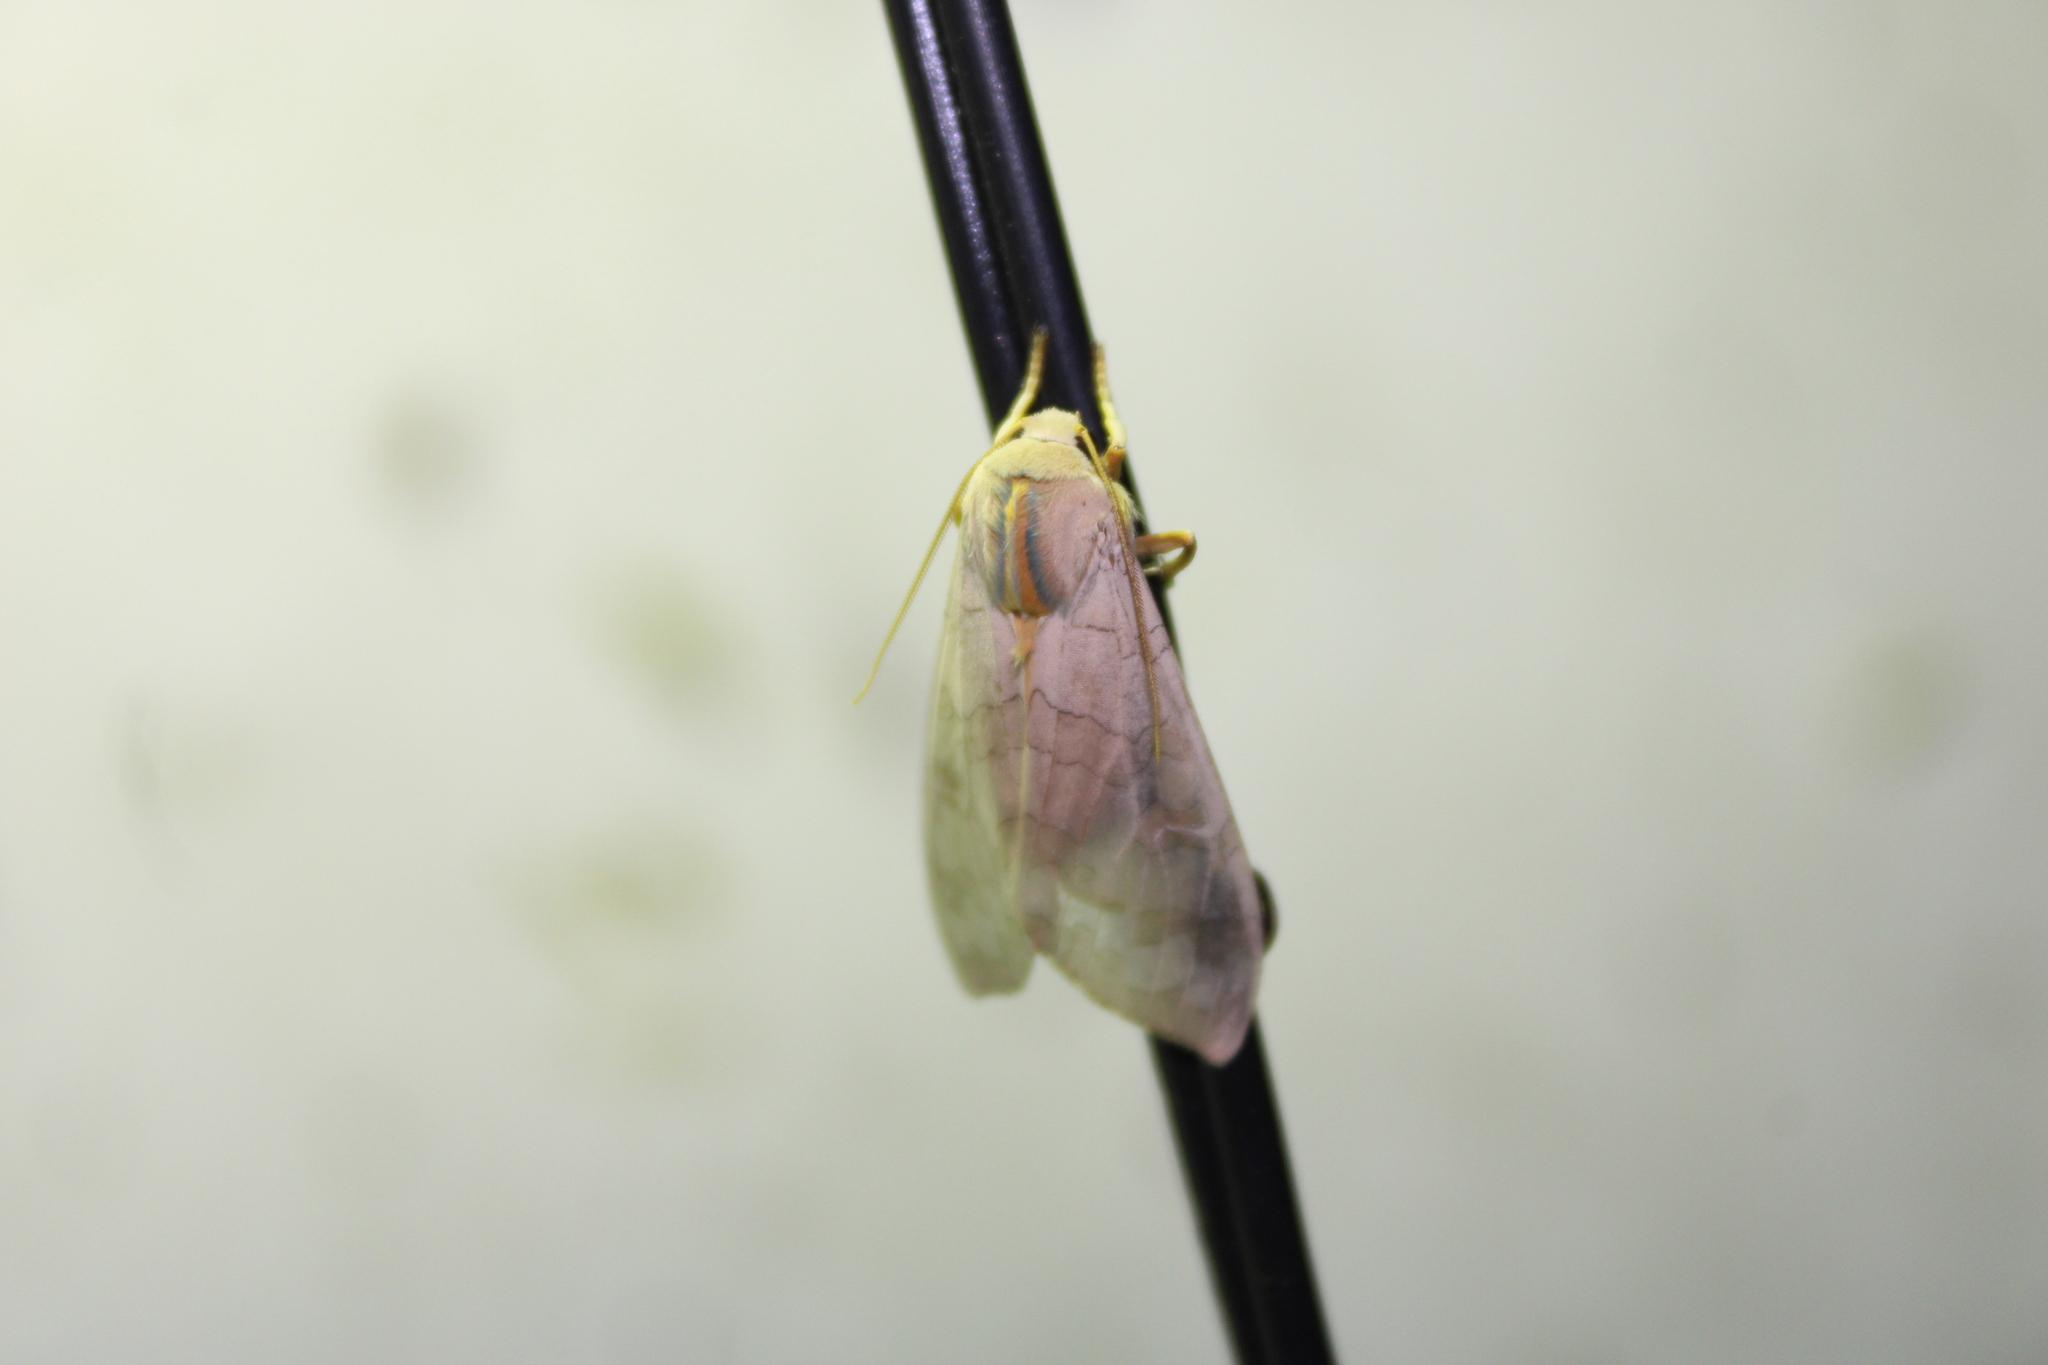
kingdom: Animalia
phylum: Arthropoda
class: Insecta
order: Lepidoptera
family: Erebidae
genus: Halysidota
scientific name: Halysidota
